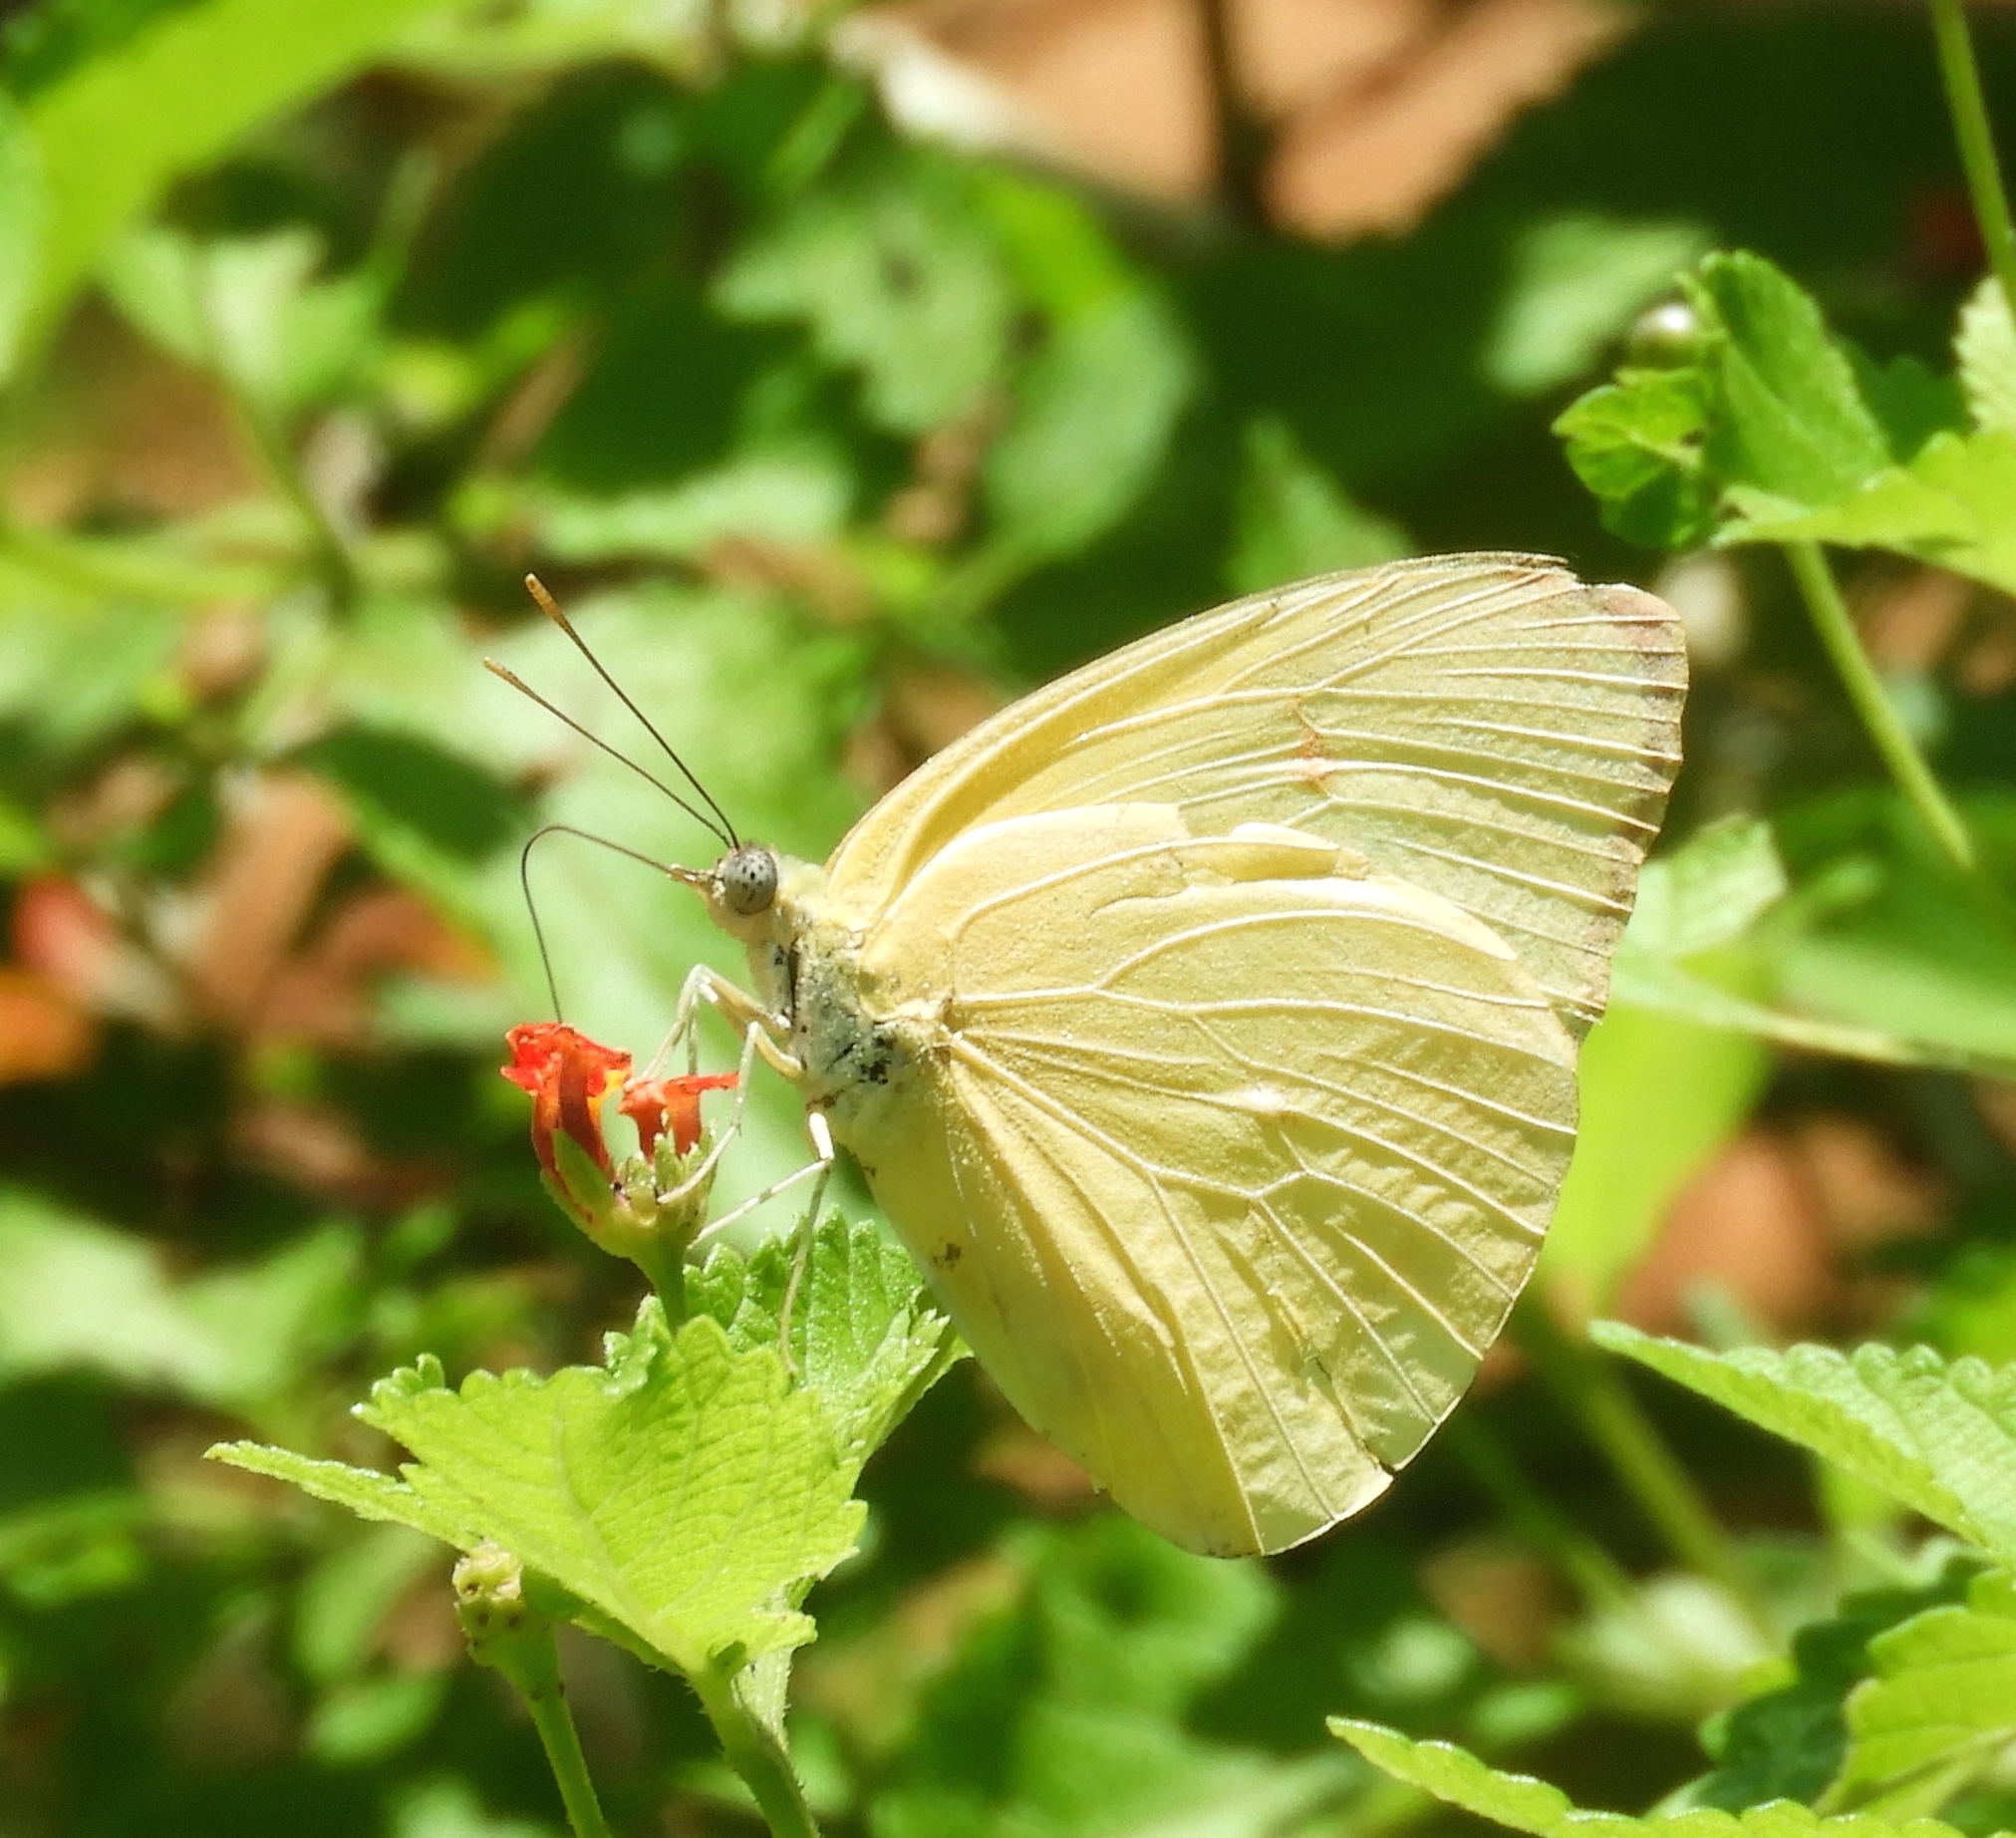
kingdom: Animalia
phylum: Arthropoda
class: Insecta
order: Lepidoptera
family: Pieridae
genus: Kricogonia
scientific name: Kricogonia lyside
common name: Guayacan sulphur,
